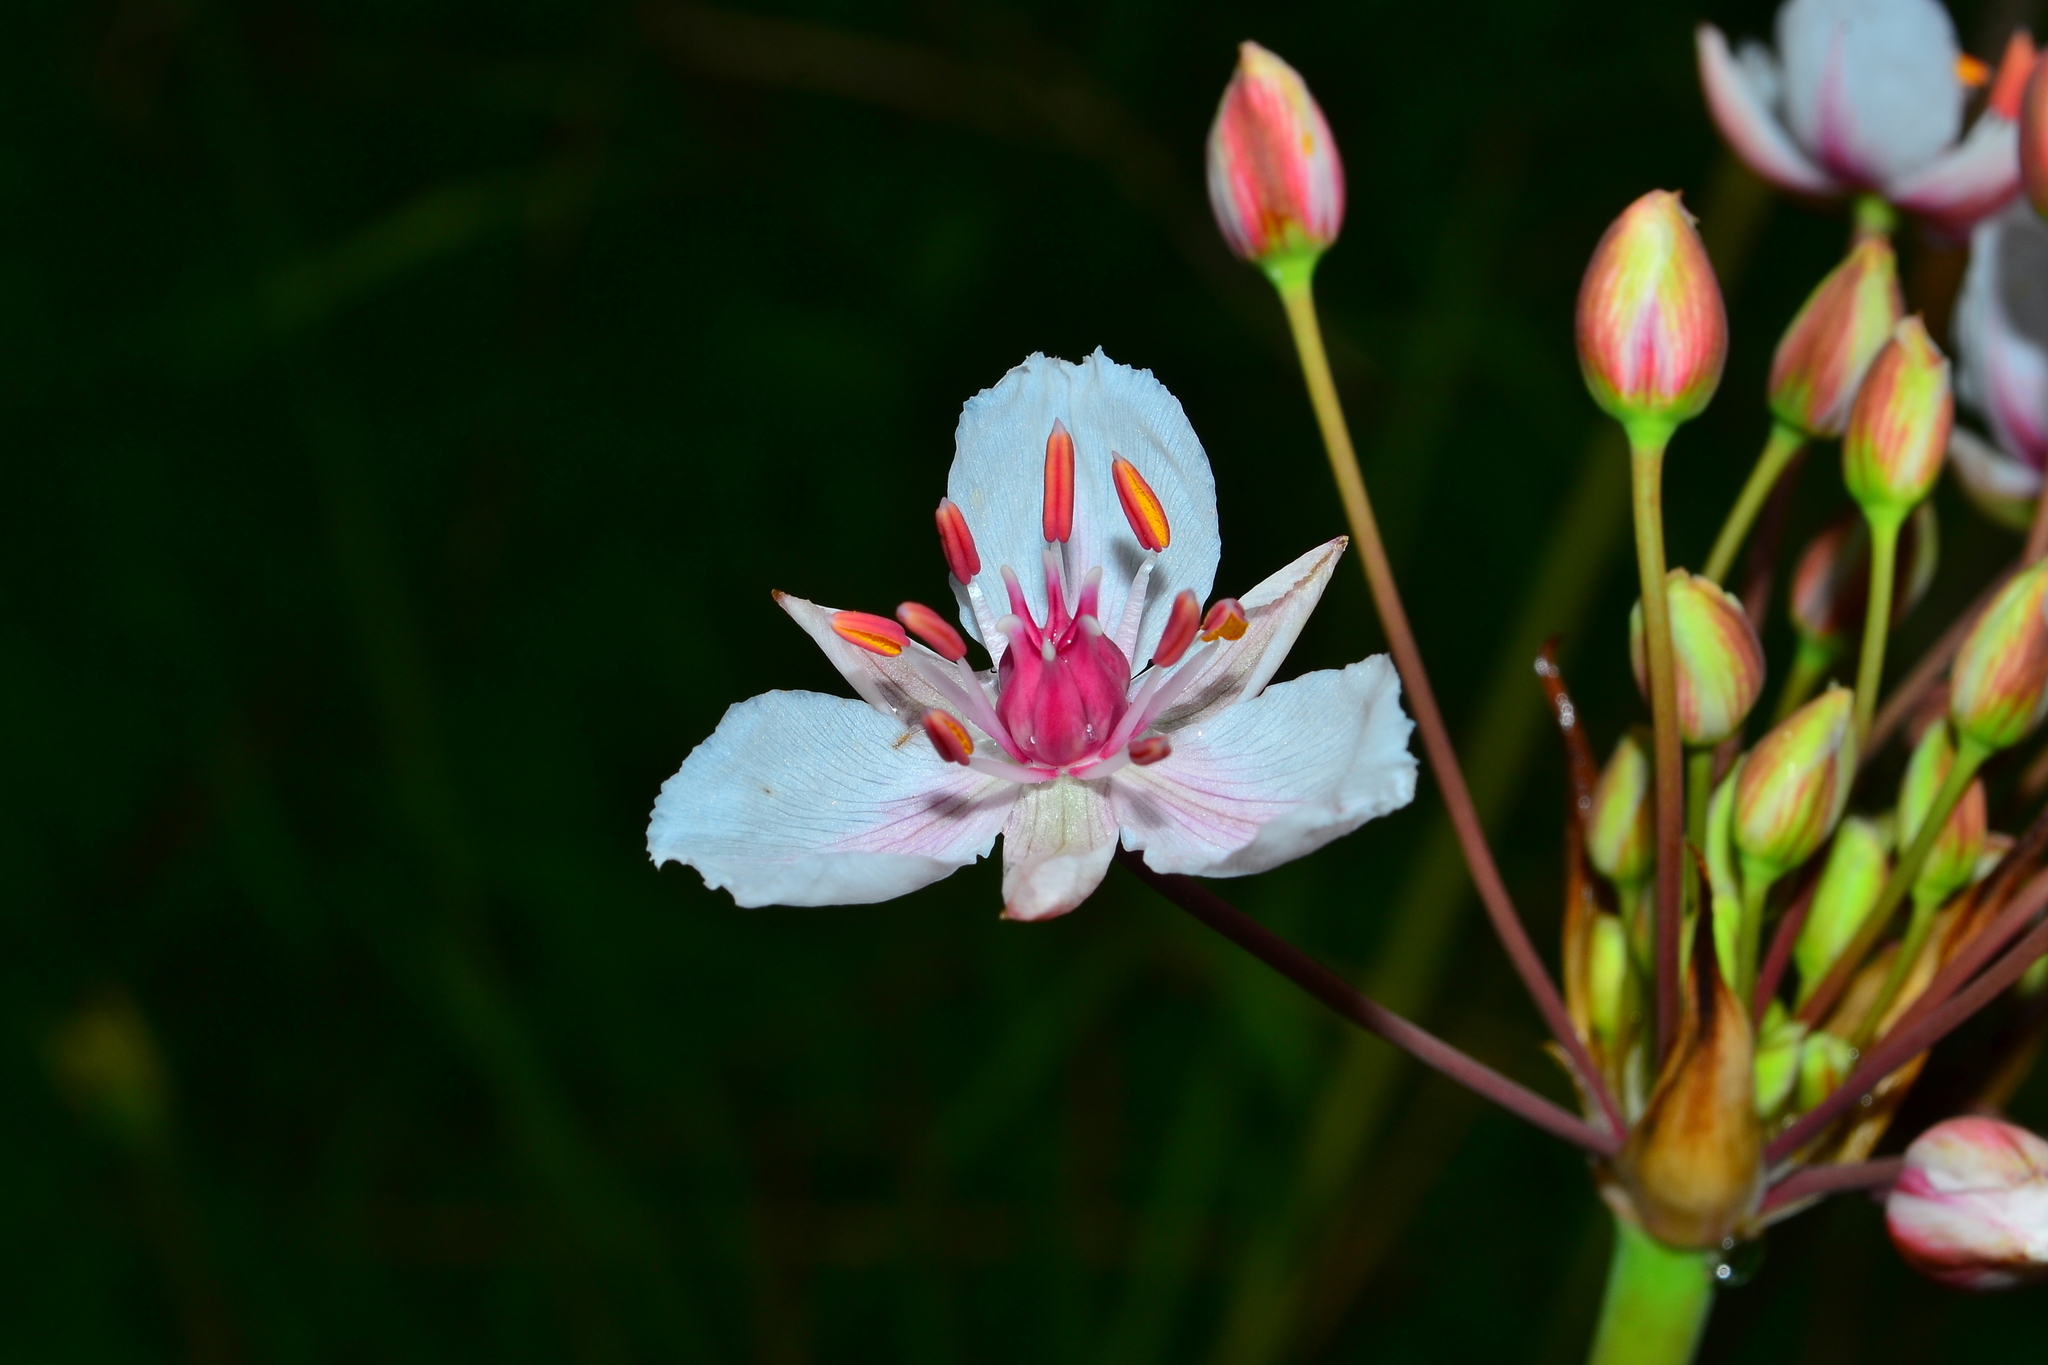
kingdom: Plantae
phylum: Tracheophyta
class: Liliopsida
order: Alismatales
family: Butomaceae
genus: Butomus
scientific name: Butomus umbellatus
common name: Flowering-rush
